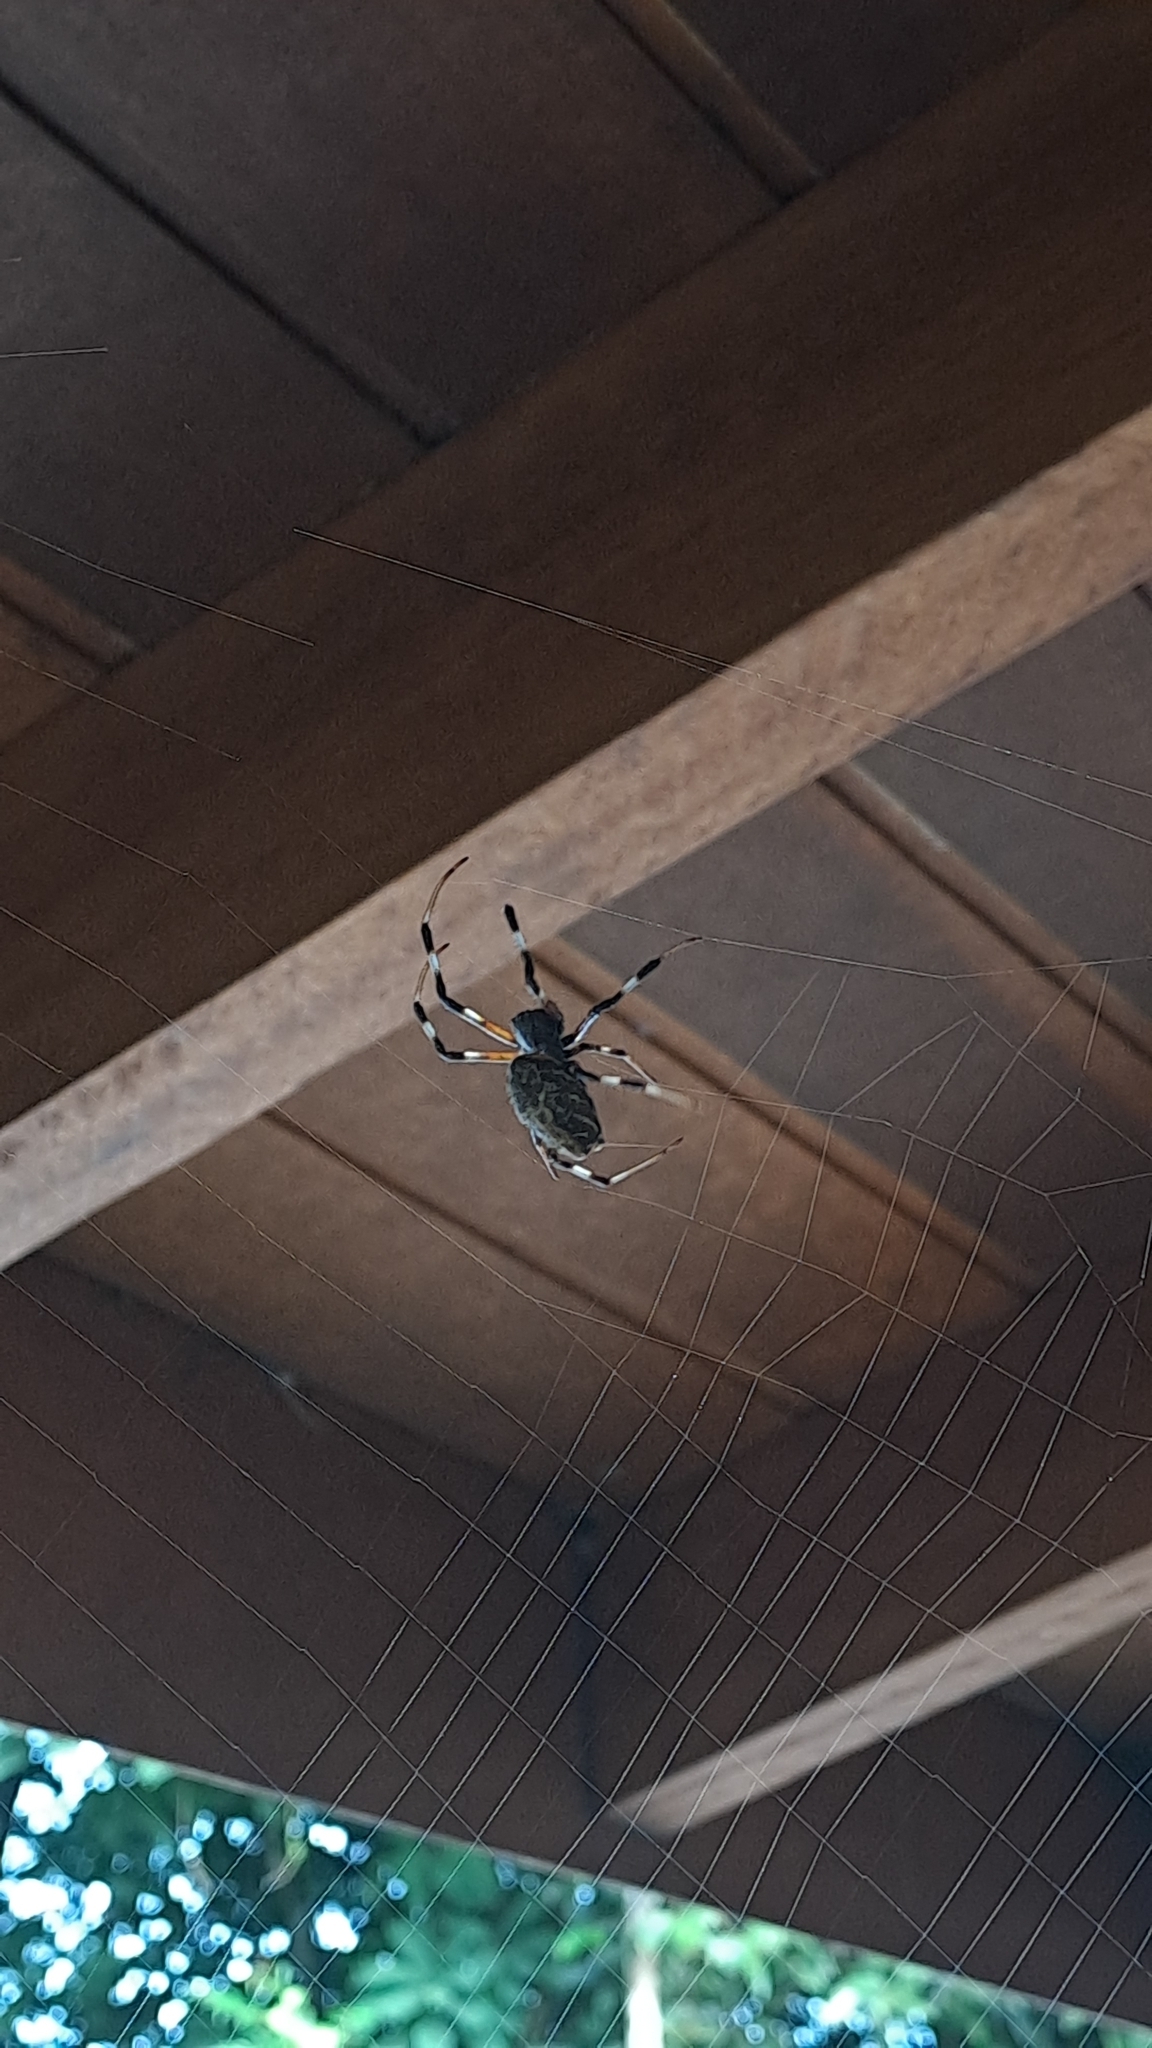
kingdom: Animalia
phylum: Arthropoda
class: Arachnida
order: Araneae
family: Araneidae
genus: Nephilingis
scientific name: Nephilingis cruentata
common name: African hermit spider
